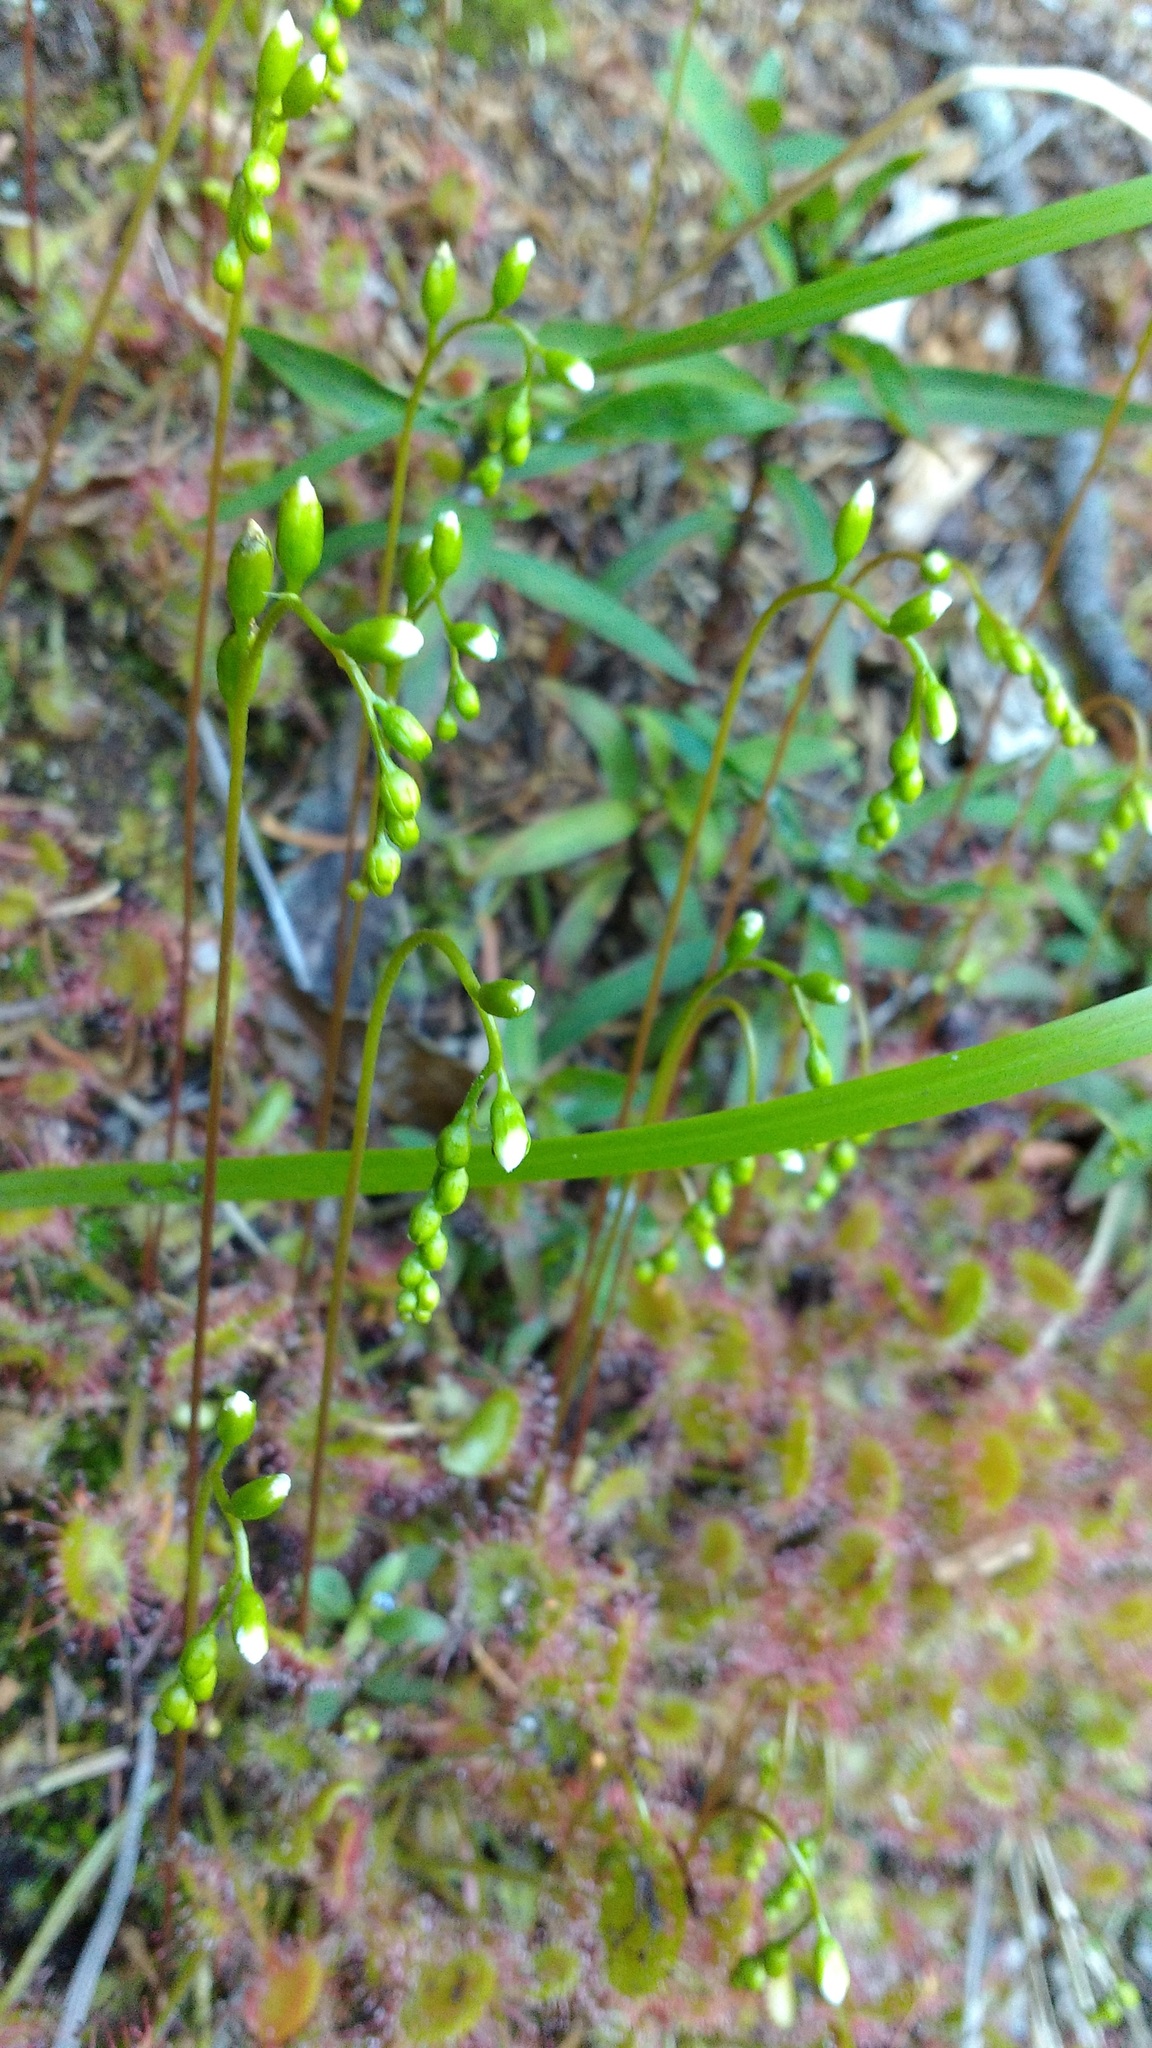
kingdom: Plantae
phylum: Tracheophyta
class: Magnoliopsida
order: Caryophyllales
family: Droseraceae
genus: Drosera
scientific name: Drosera rotundifolia
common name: Round-leaved sundew
